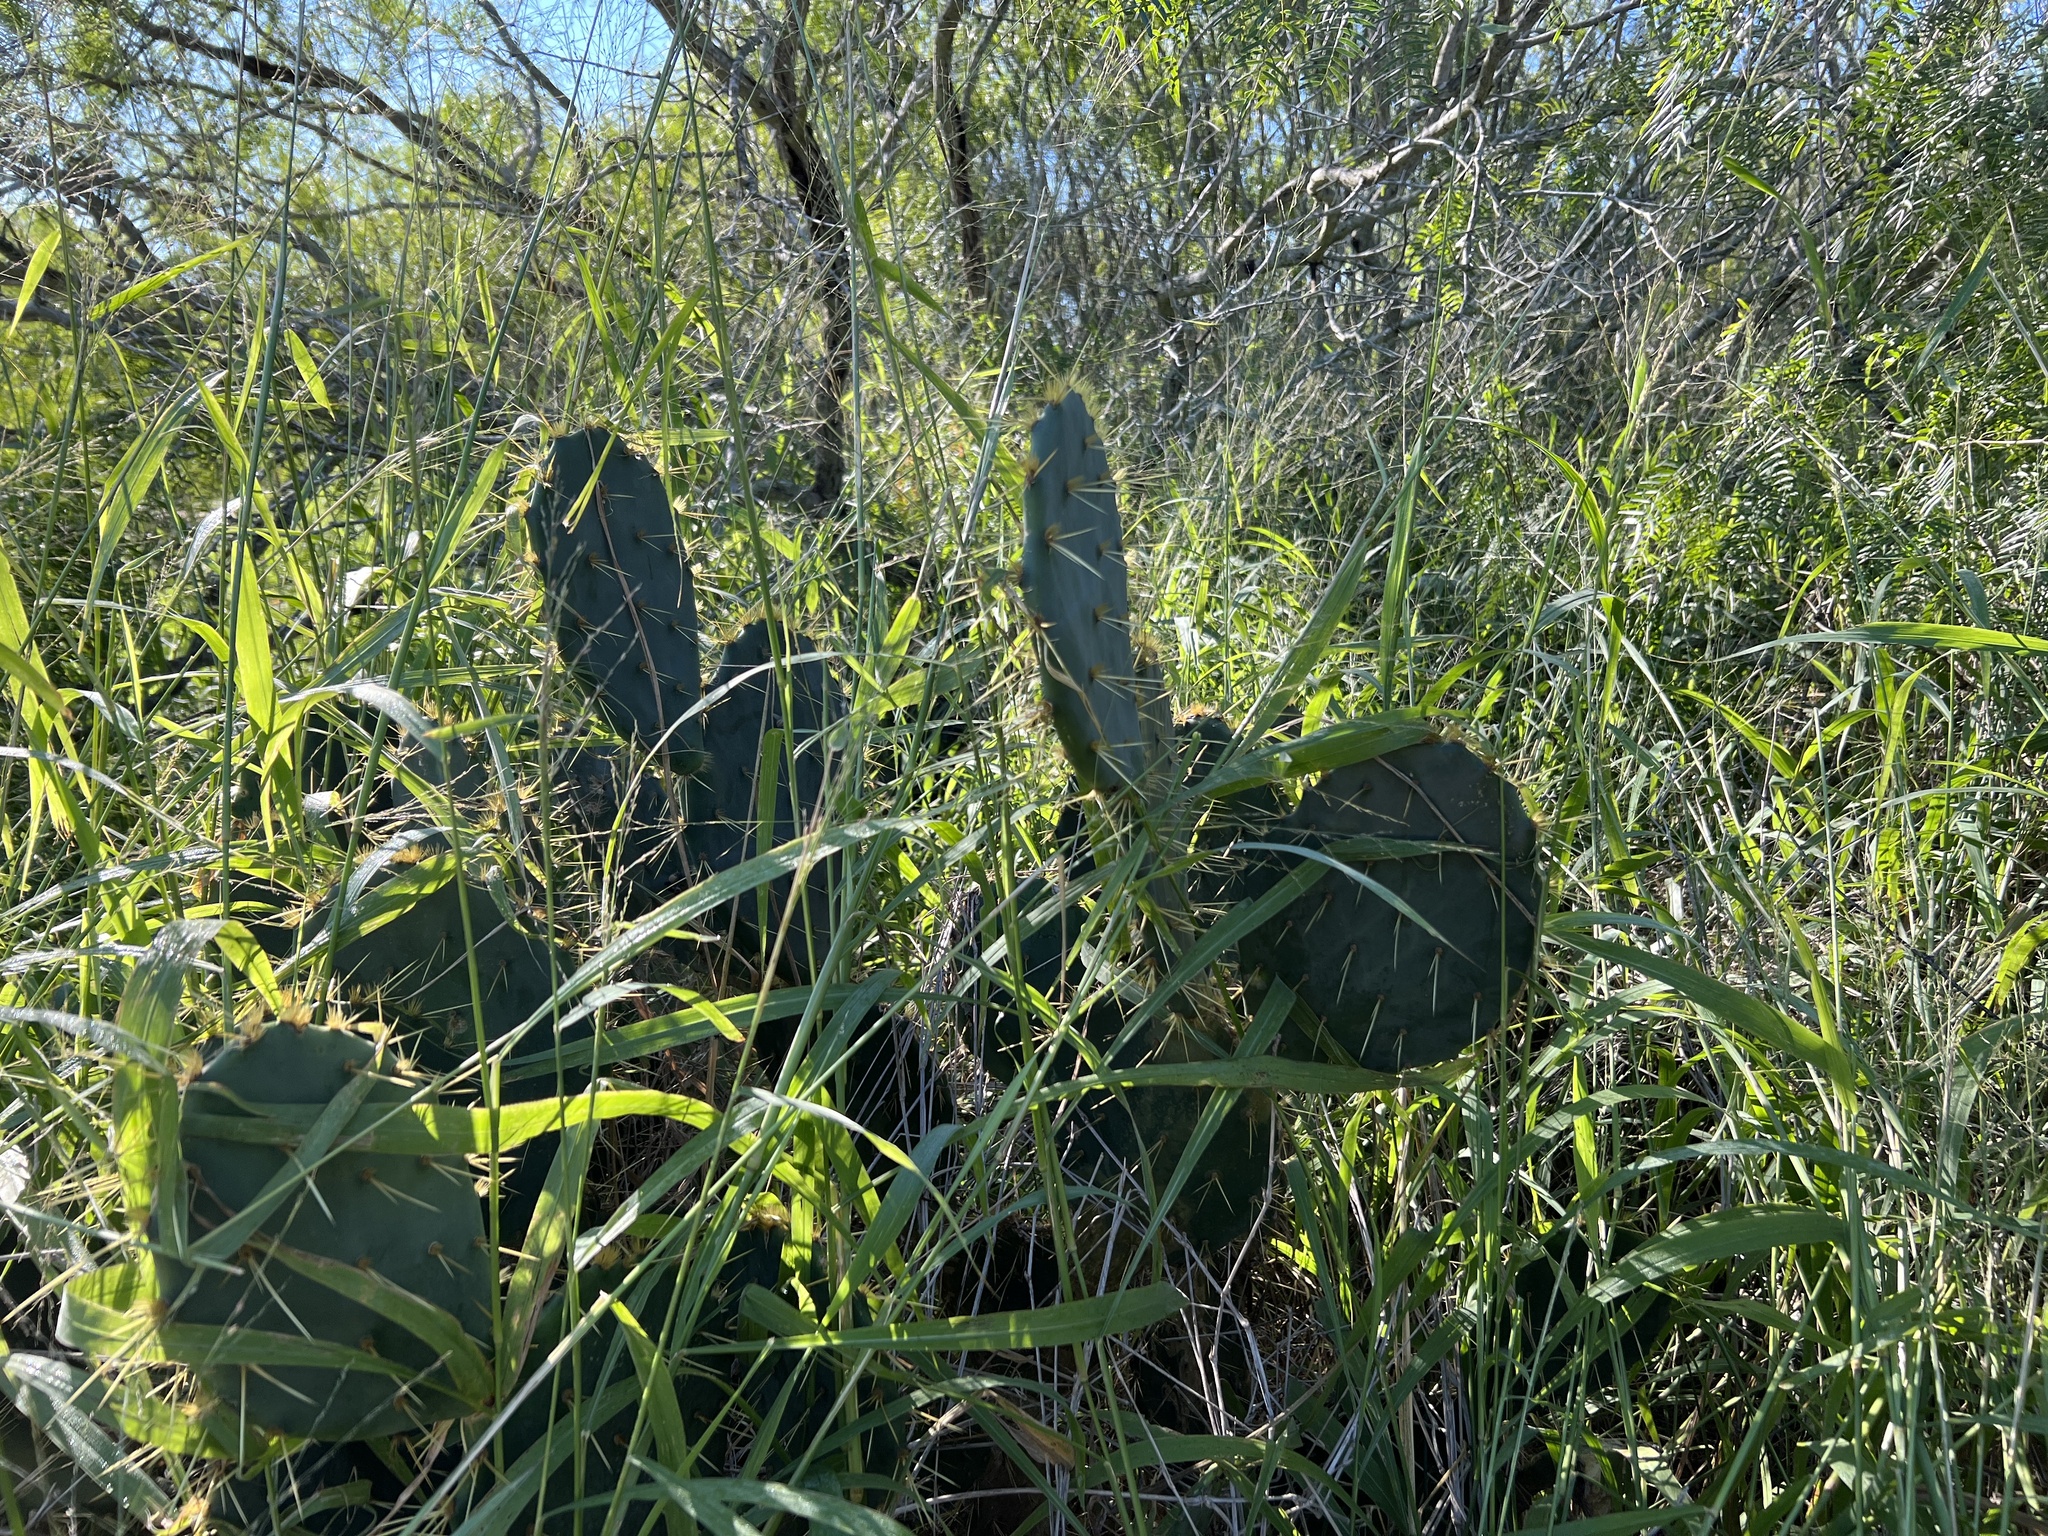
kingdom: Plantae
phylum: Tracheophyta
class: Magnoliopsida
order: Caryophyllales
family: Cactaceae
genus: Opuntia
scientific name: Opuntia alta
